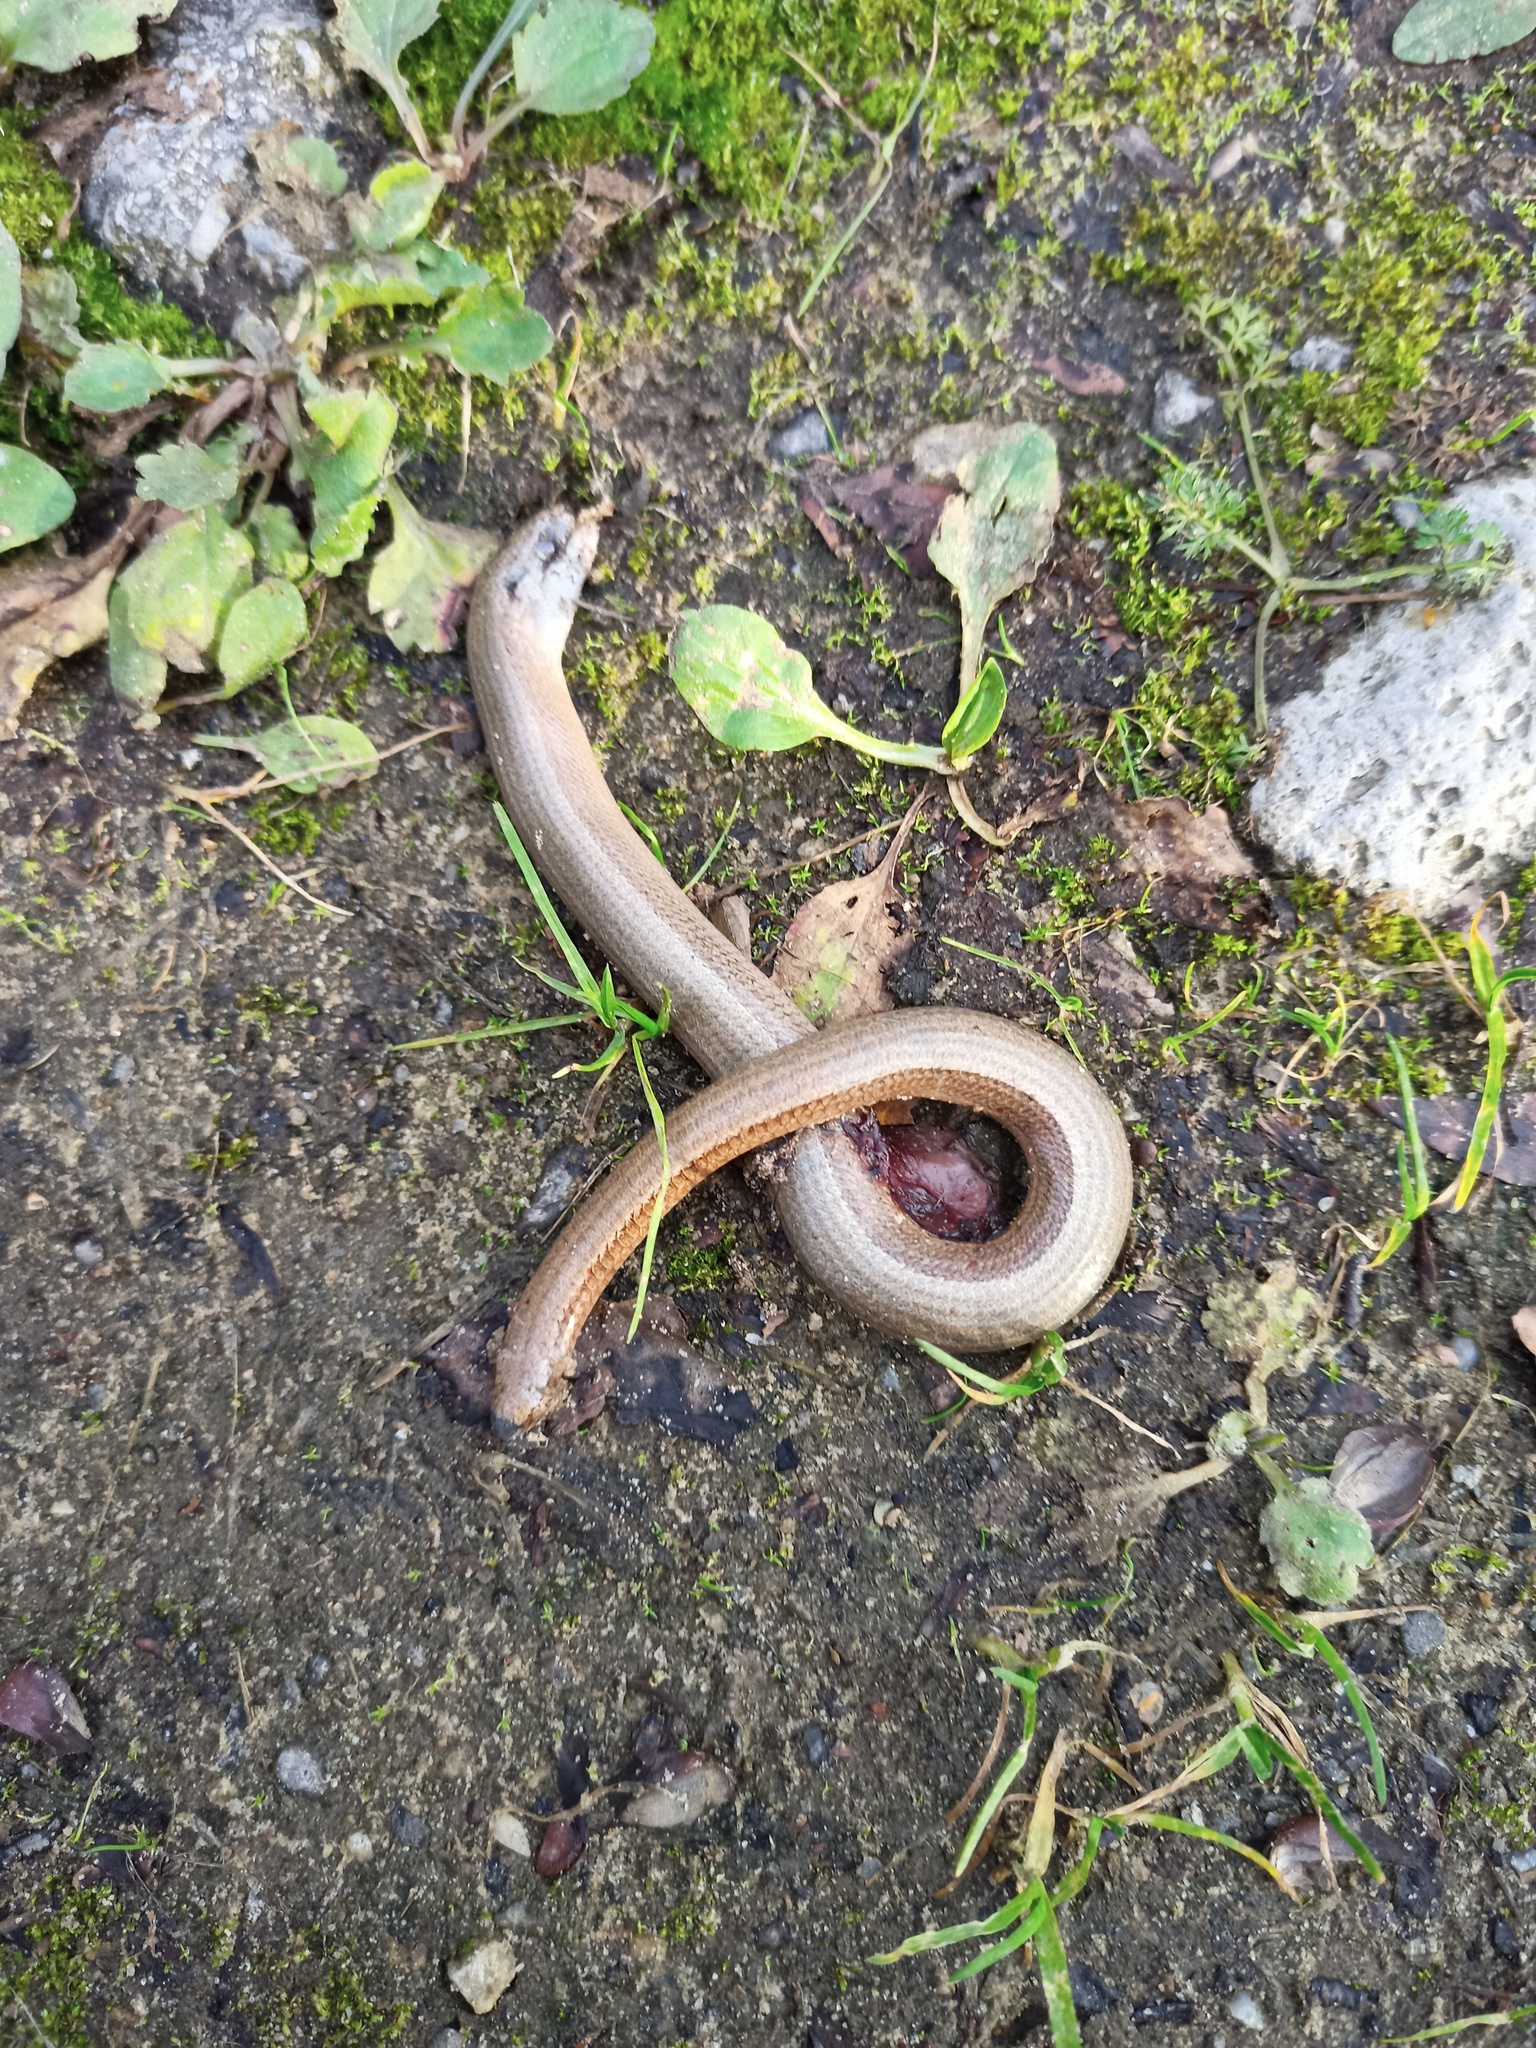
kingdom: Animalia
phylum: Chordata
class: Squamata
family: Anguidae
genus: Anguis
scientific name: Anguis fragilis
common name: Slow worm
